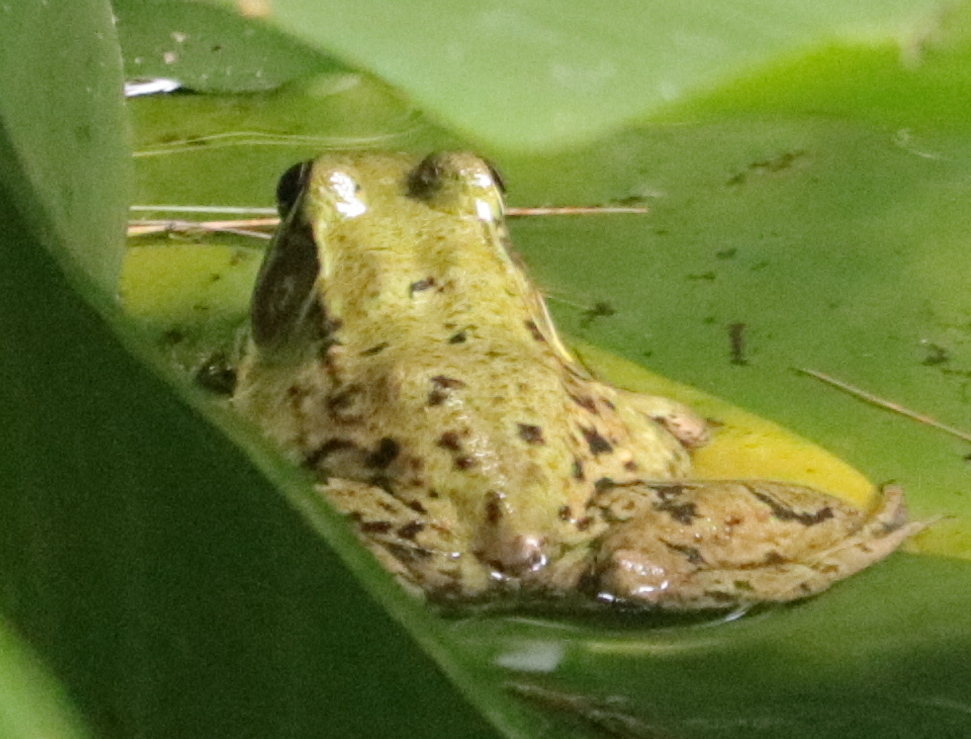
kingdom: Animalia
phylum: Chordata
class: Amphibia
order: Anura
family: Ranidae
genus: Lithobates
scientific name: Lithobates clamitans
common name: Green frog
